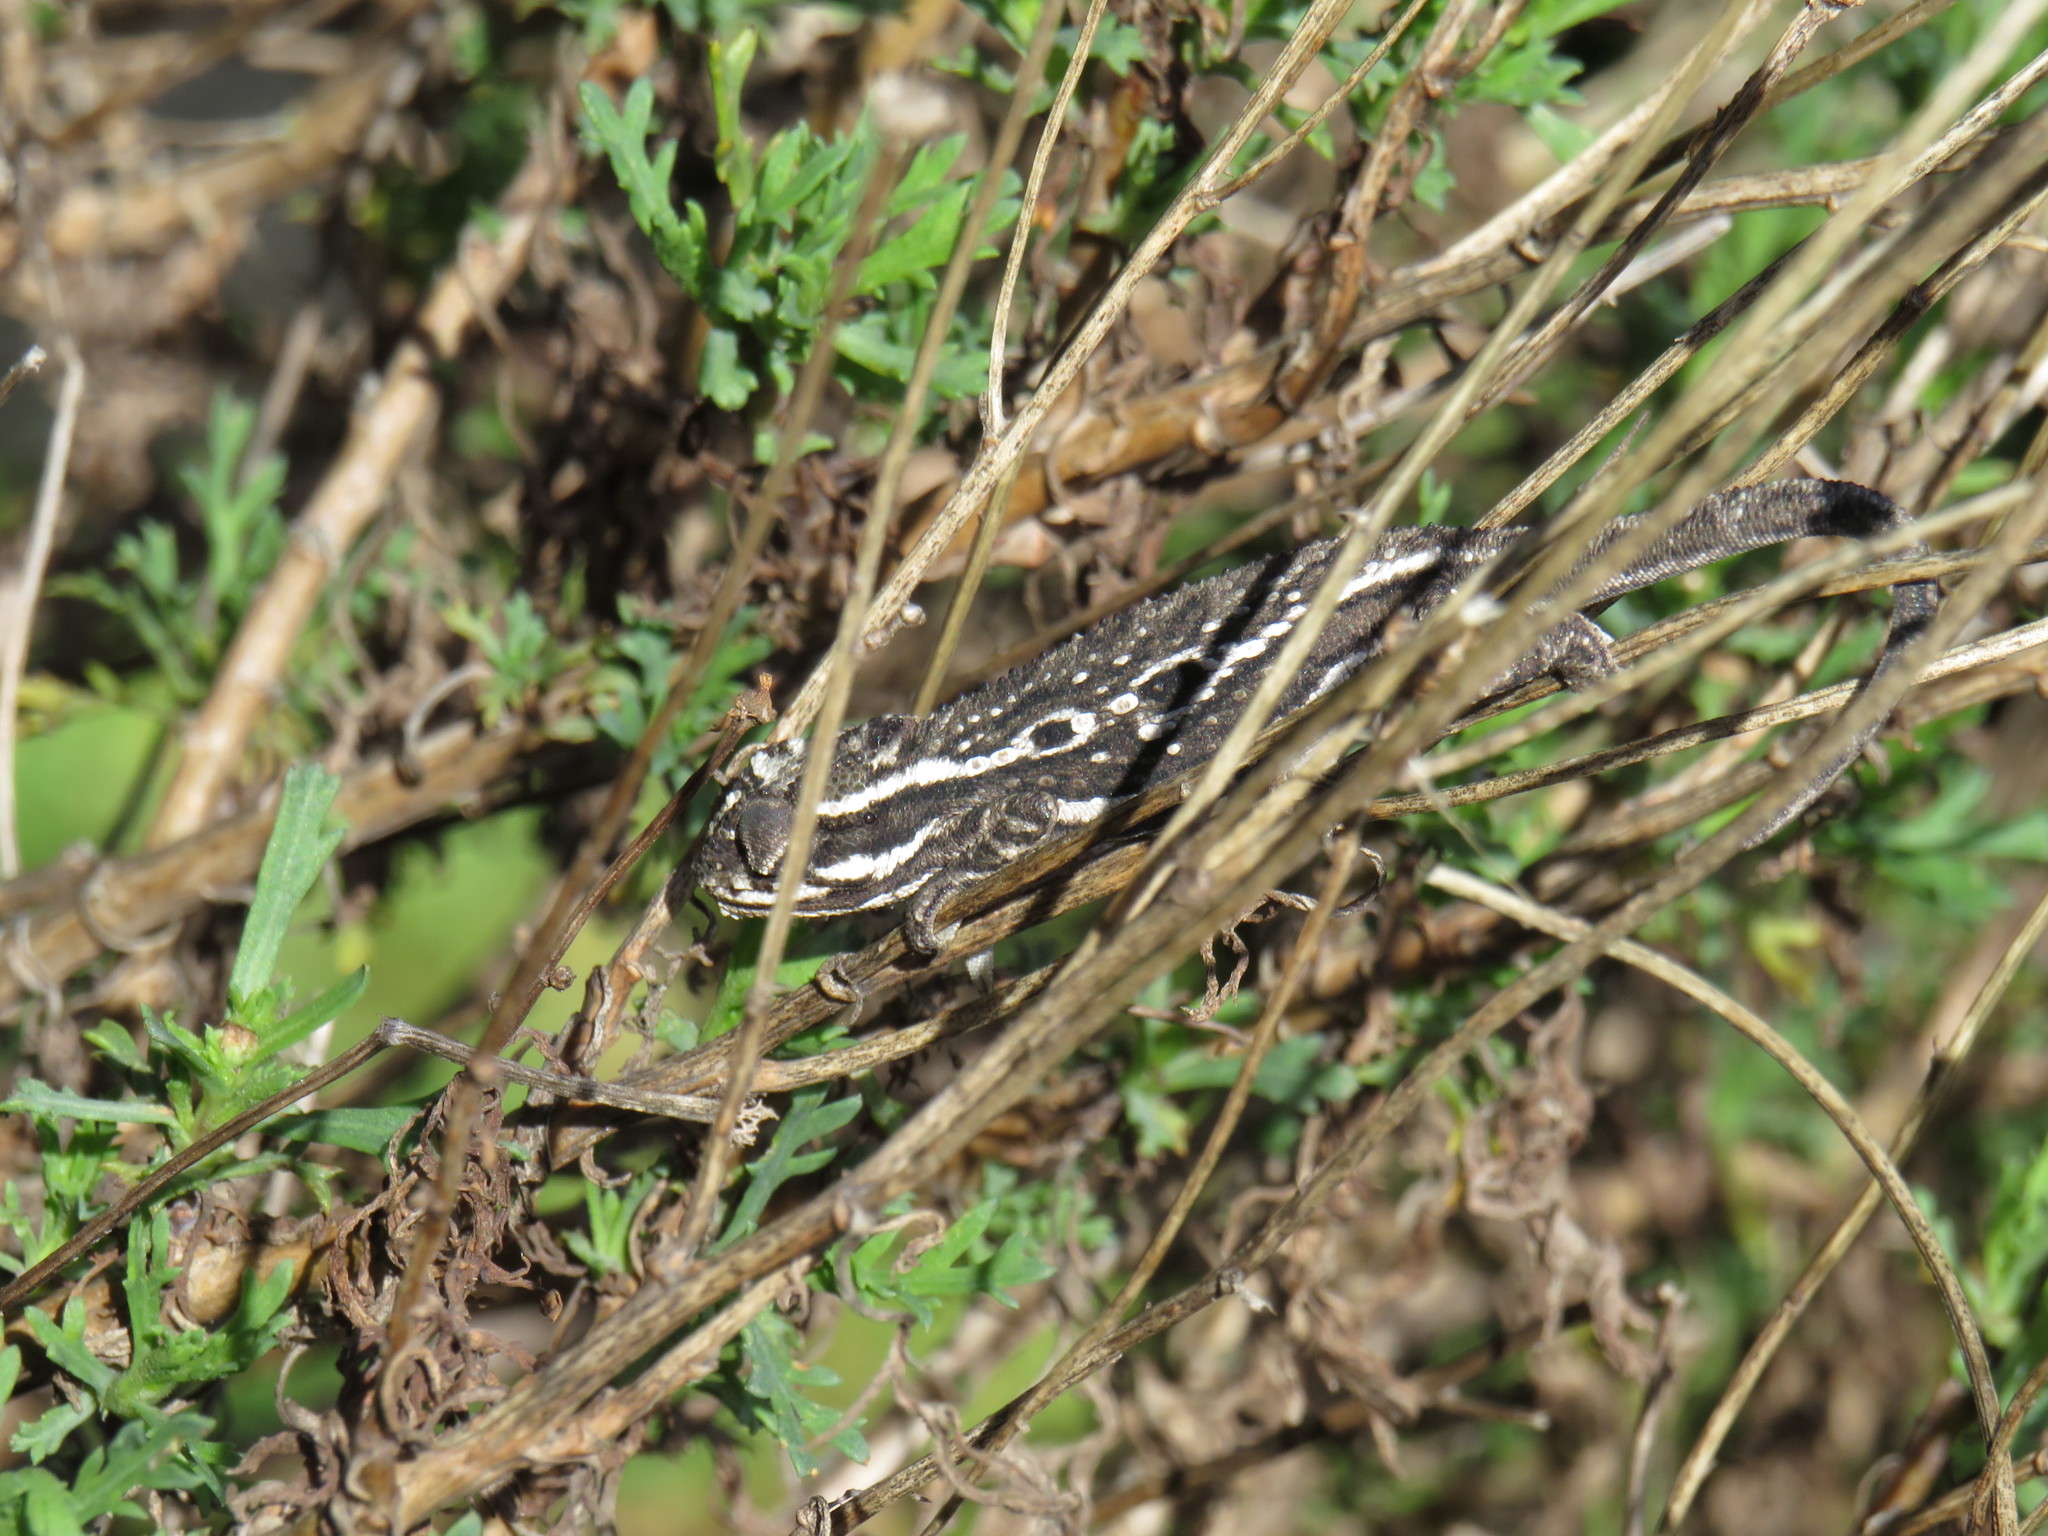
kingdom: Animalia
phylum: Chordata
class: Squamata
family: Chamaeleonidae
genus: Bradypodion
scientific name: Bradypodion pumilum
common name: Cape dwarf chameleon
